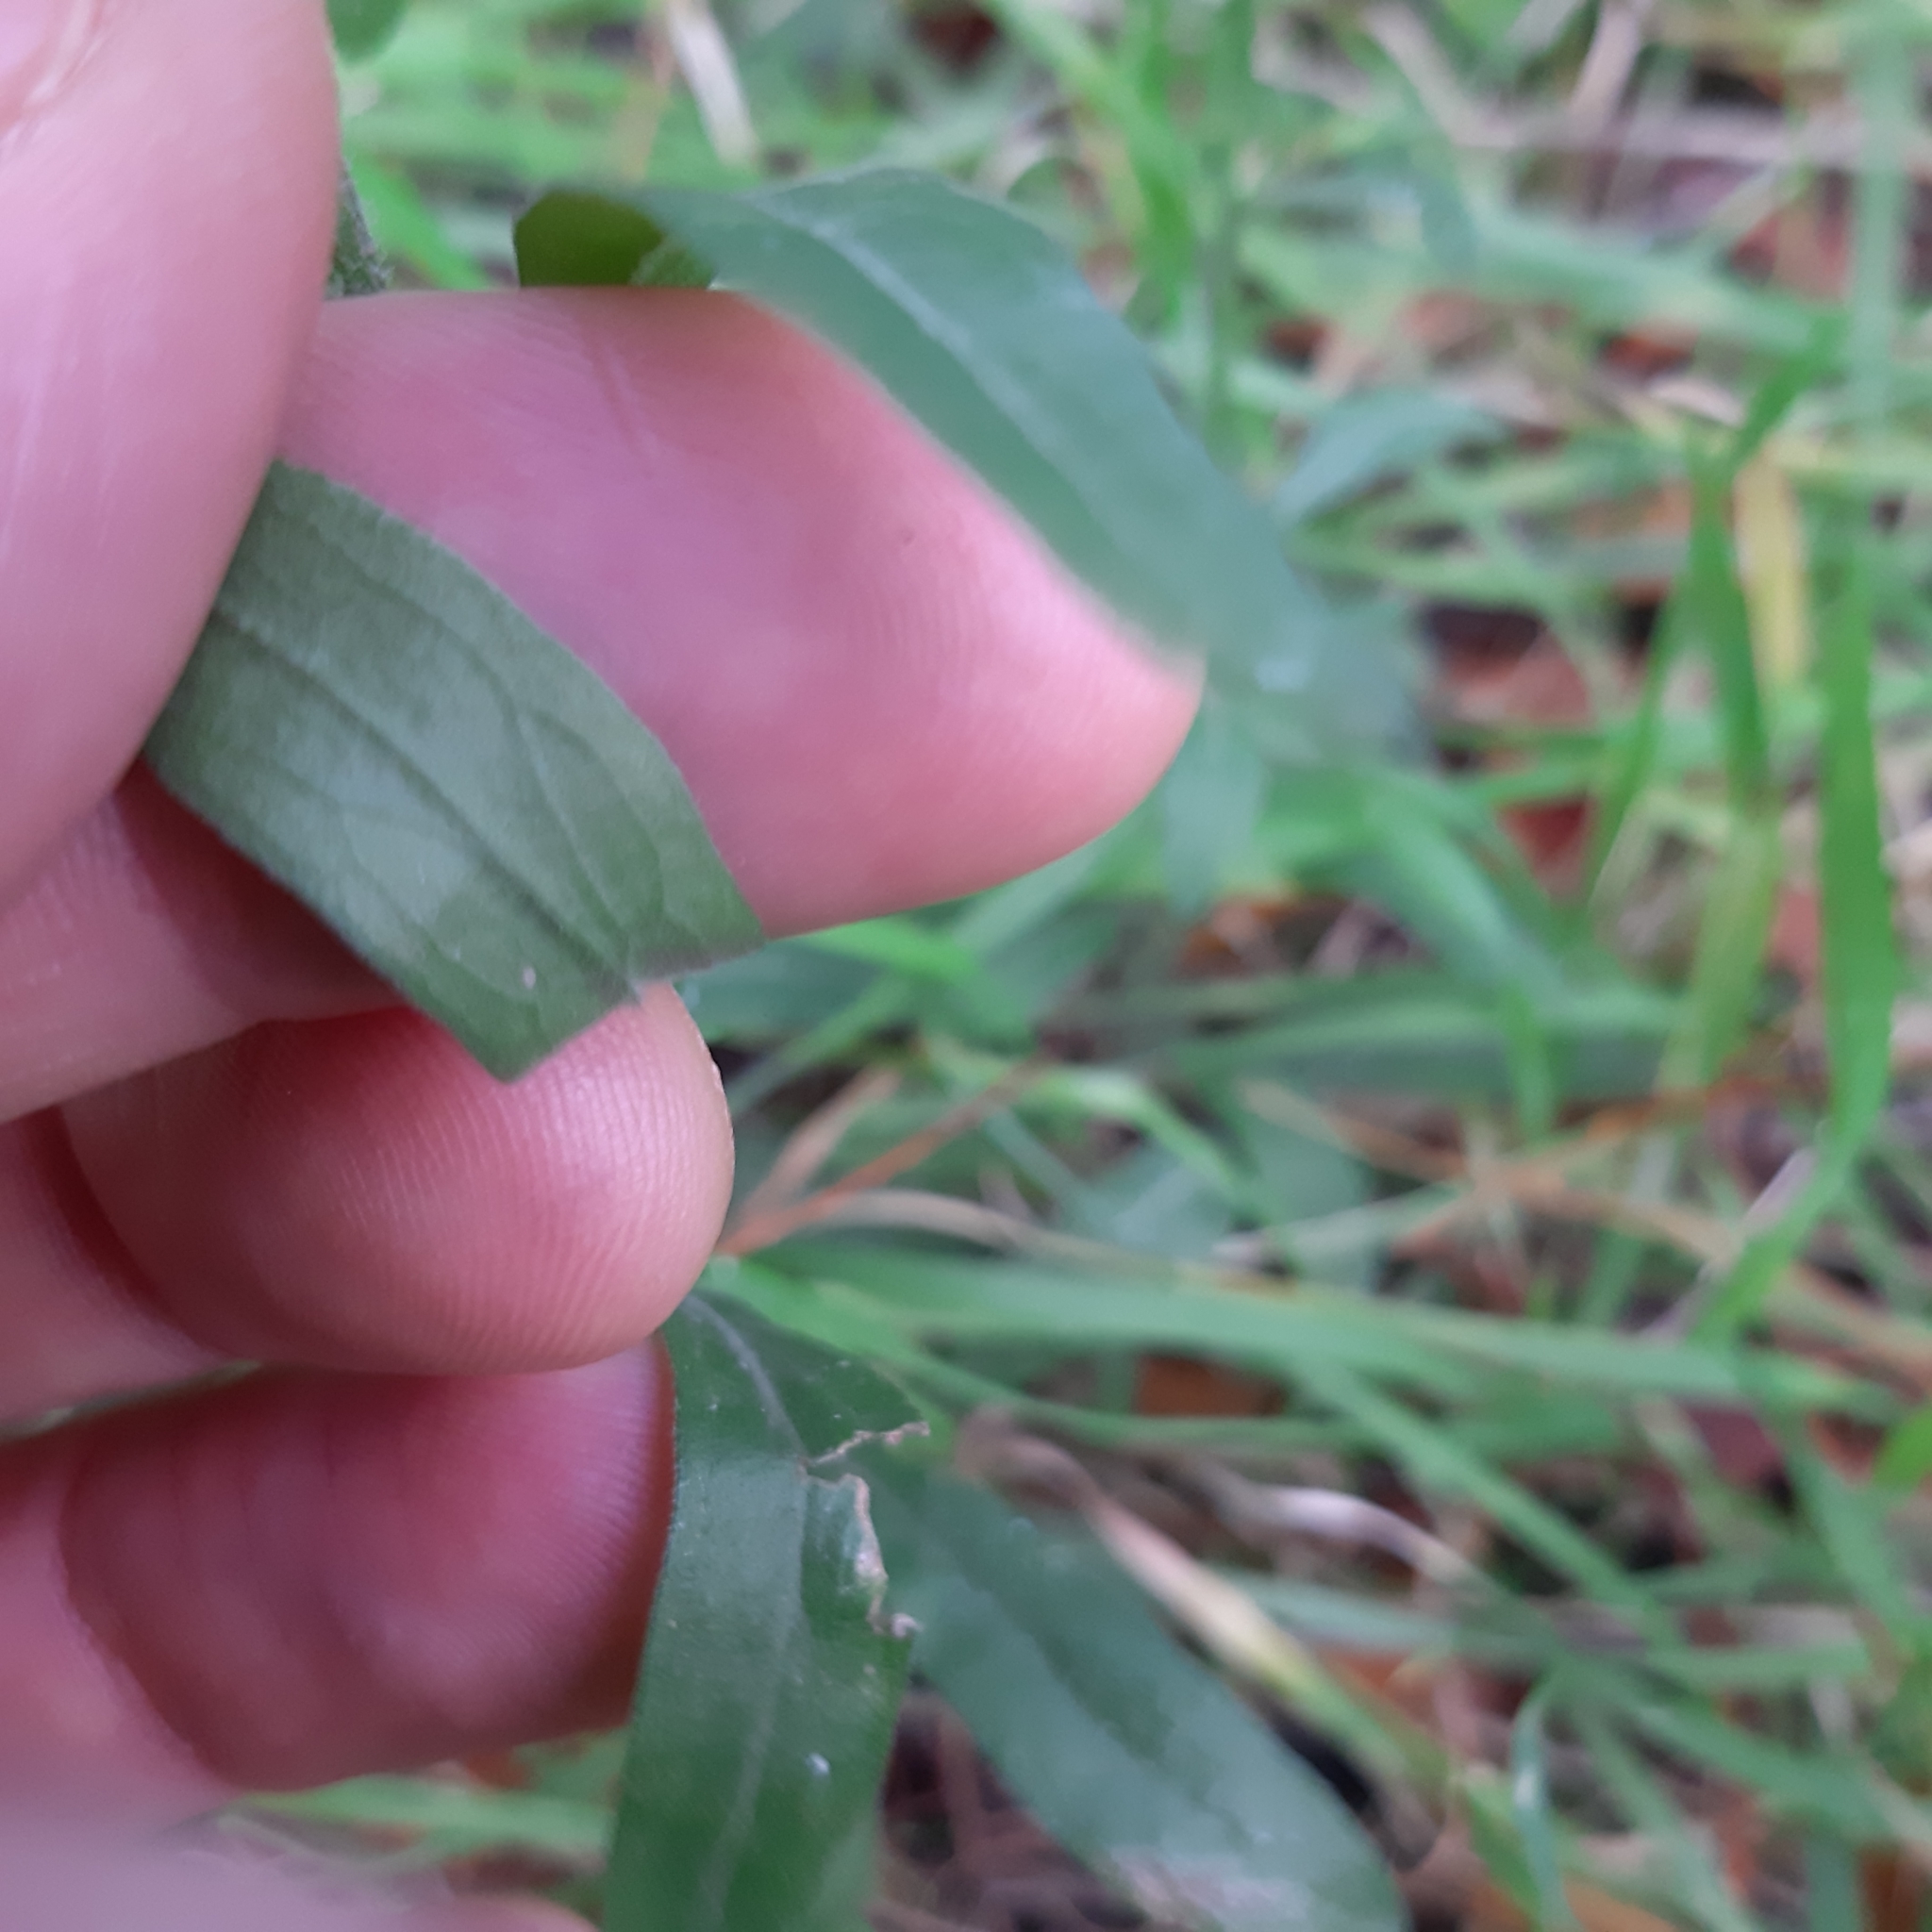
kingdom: Plantae
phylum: Tracheophyta
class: Magnoliopsida
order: Asterales
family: Asteraceae
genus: Erigeron
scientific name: Erigeron sumatrensis
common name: Daisy
